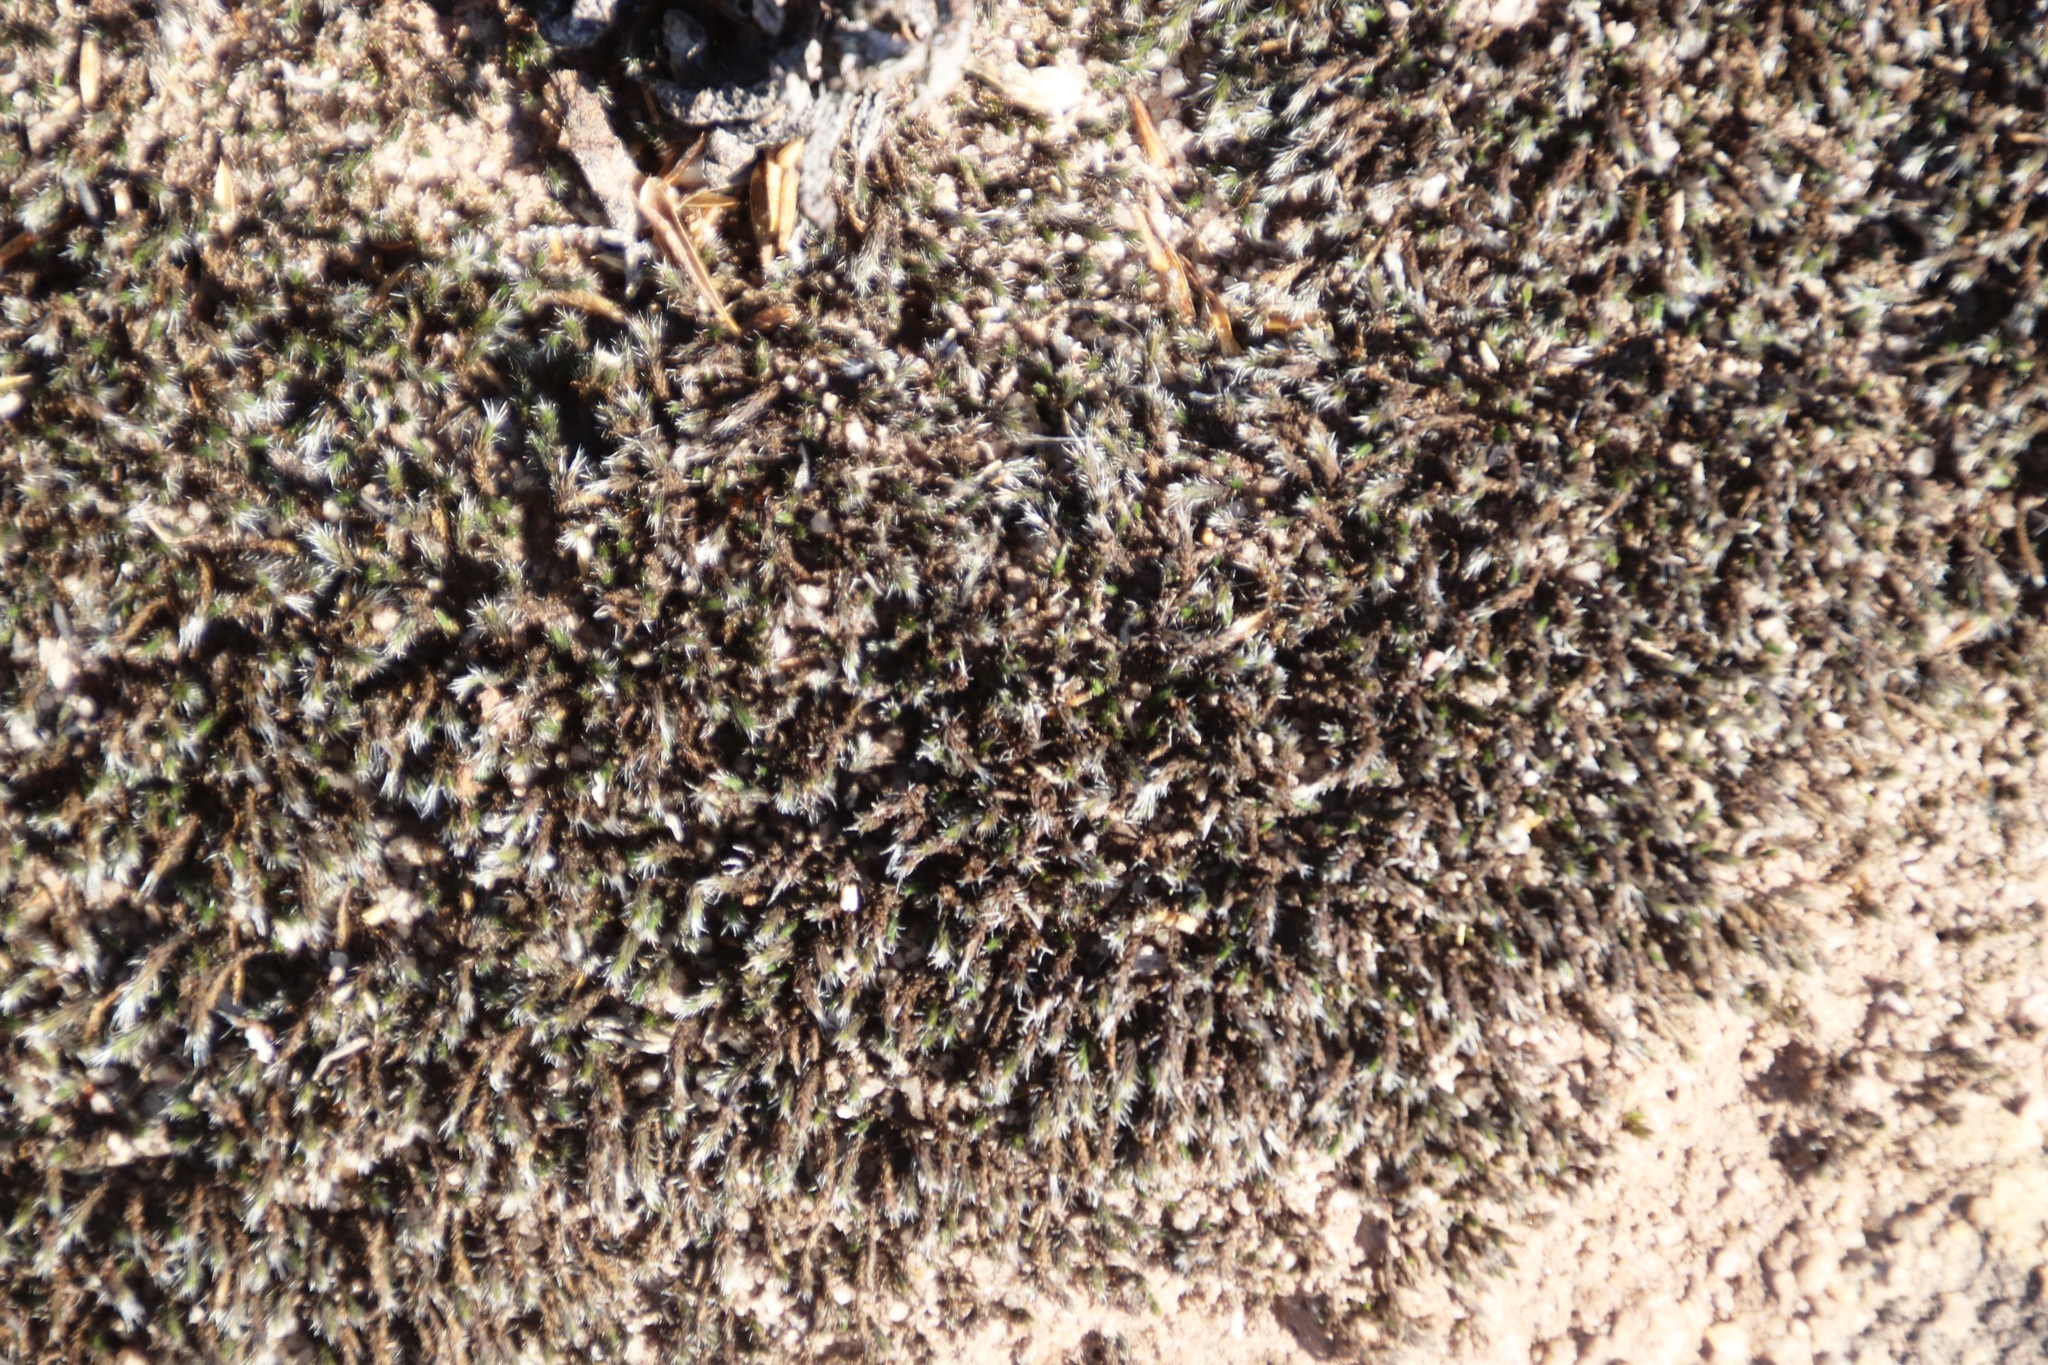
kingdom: Plantae
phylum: Bryophyta
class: Bryopsida
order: Grimmiales
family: Grimmiaceae
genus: Grimmia
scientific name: Grimmia laevigata
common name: Hoary grimmia
